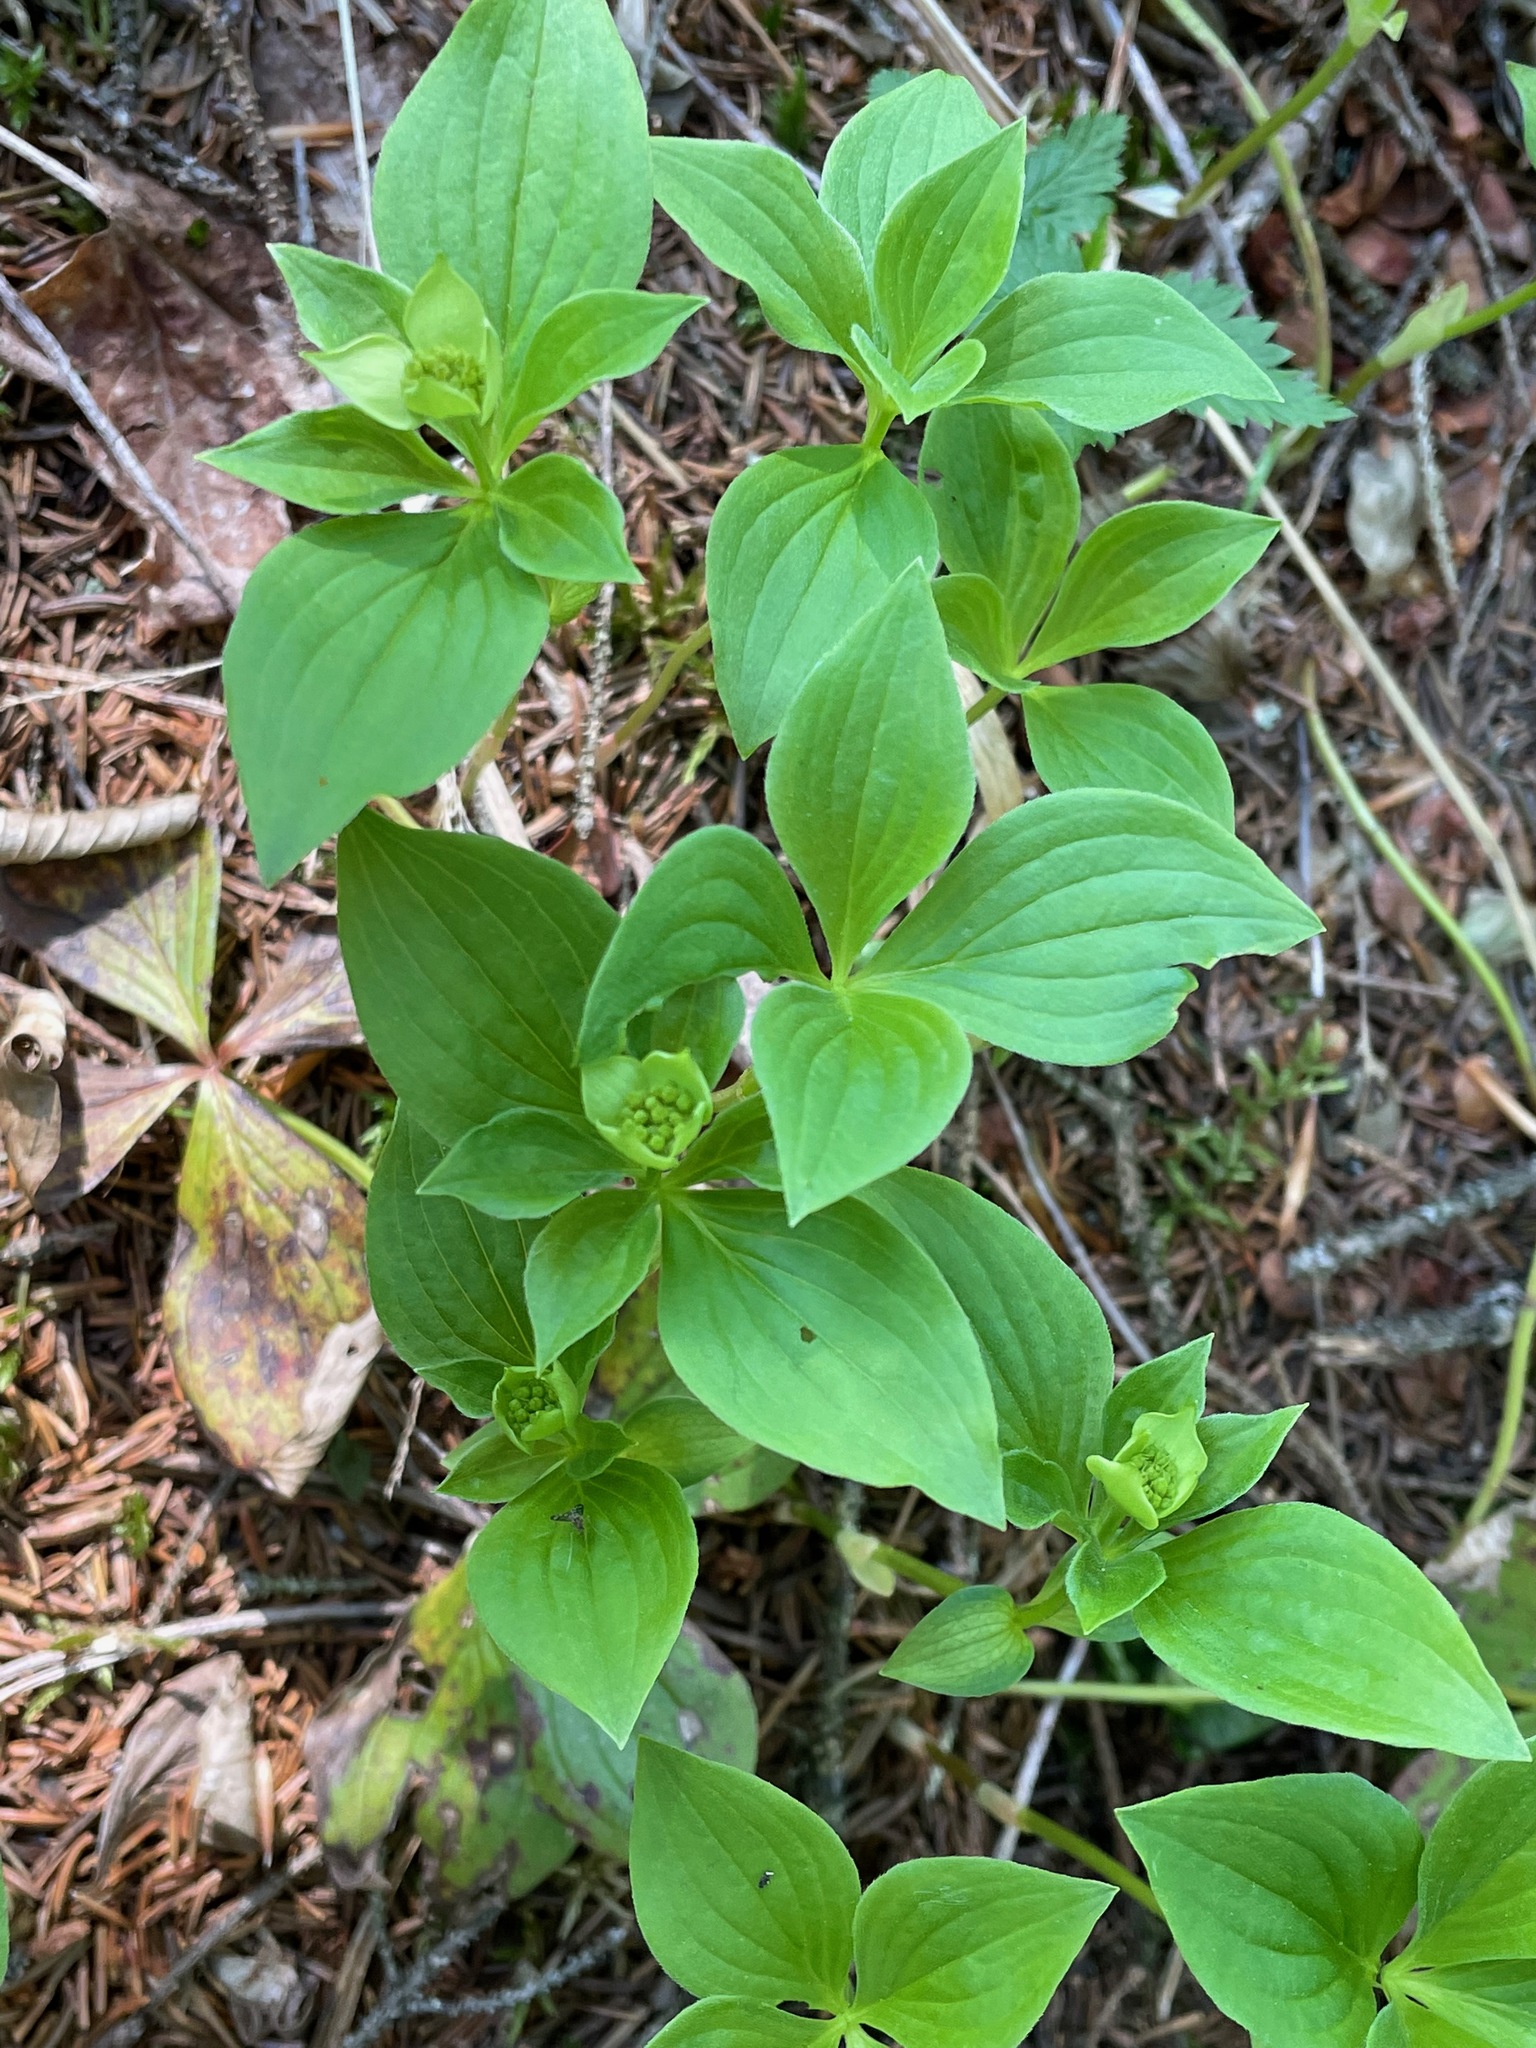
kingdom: Plantae
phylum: Tracheophyta
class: Magnoliopsida
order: Cornales
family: Cornaceae
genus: Cornus
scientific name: Cornus canadensis
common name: Creeping dogwood
